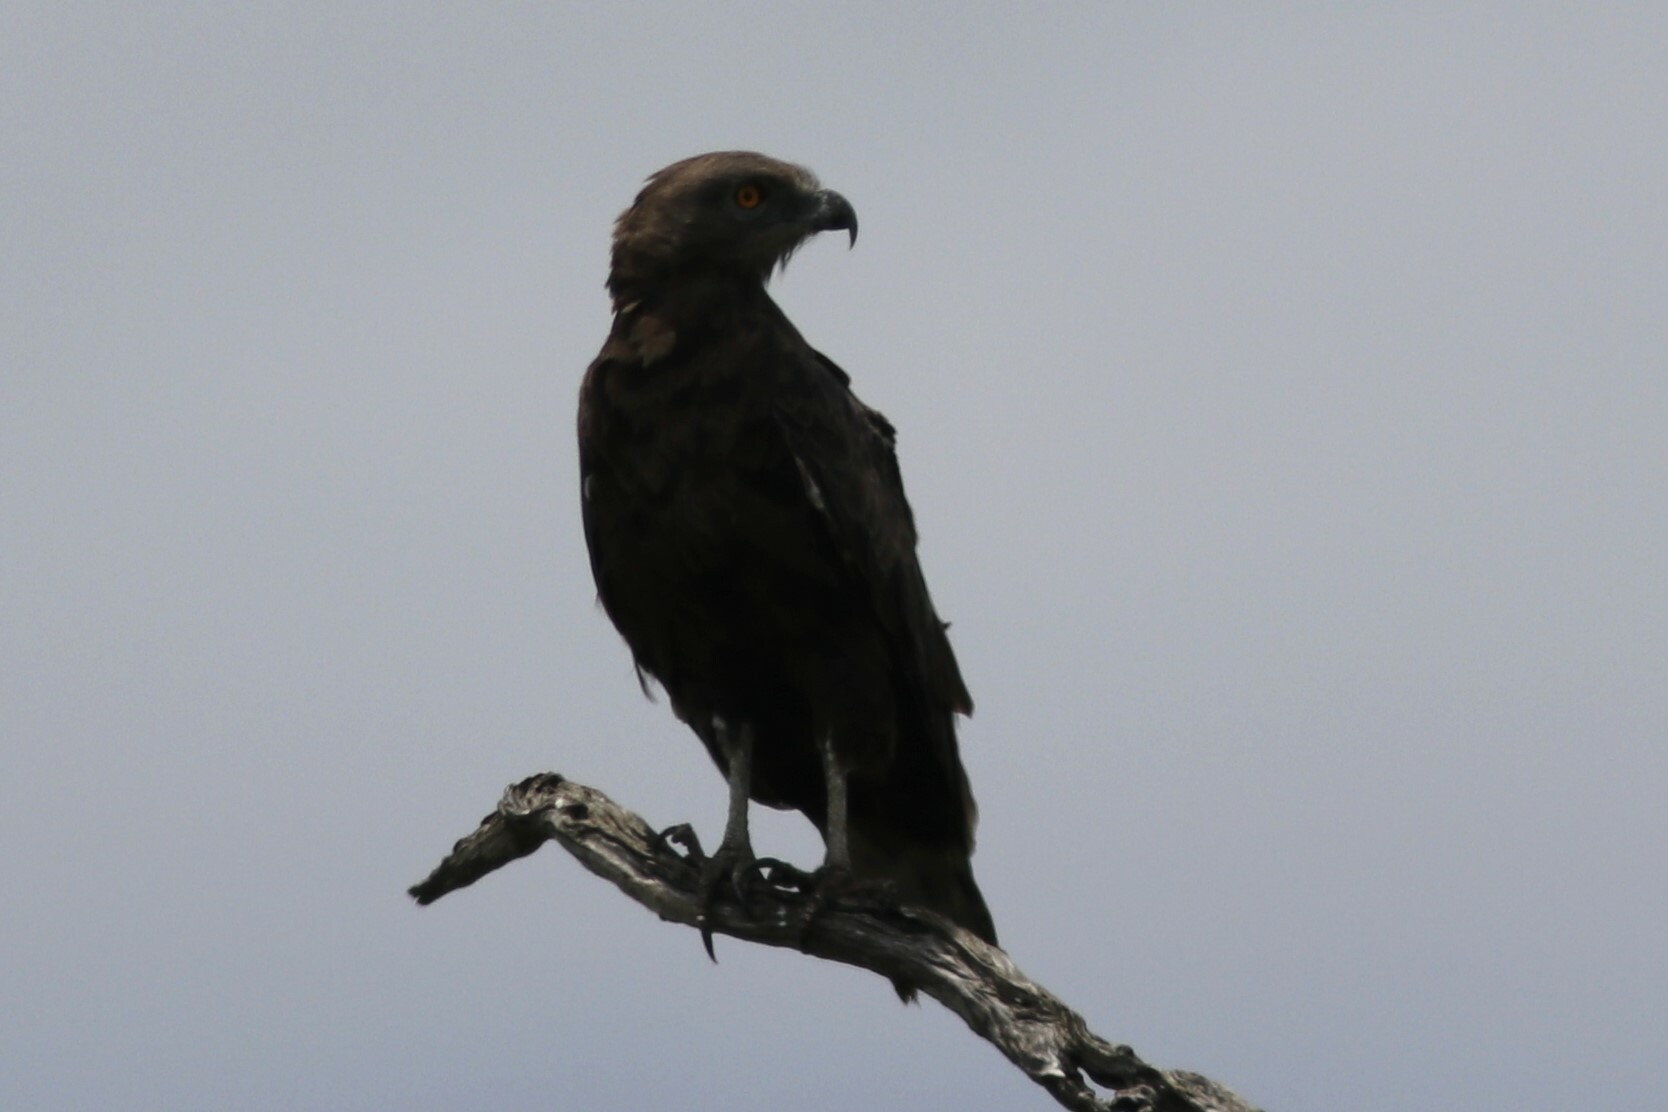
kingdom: Animalia
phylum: Chordata
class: Aves
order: Accipitriformes
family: Accipitridae
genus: Circaetus
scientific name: Circaetus cinereus
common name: Brown snake eagle
